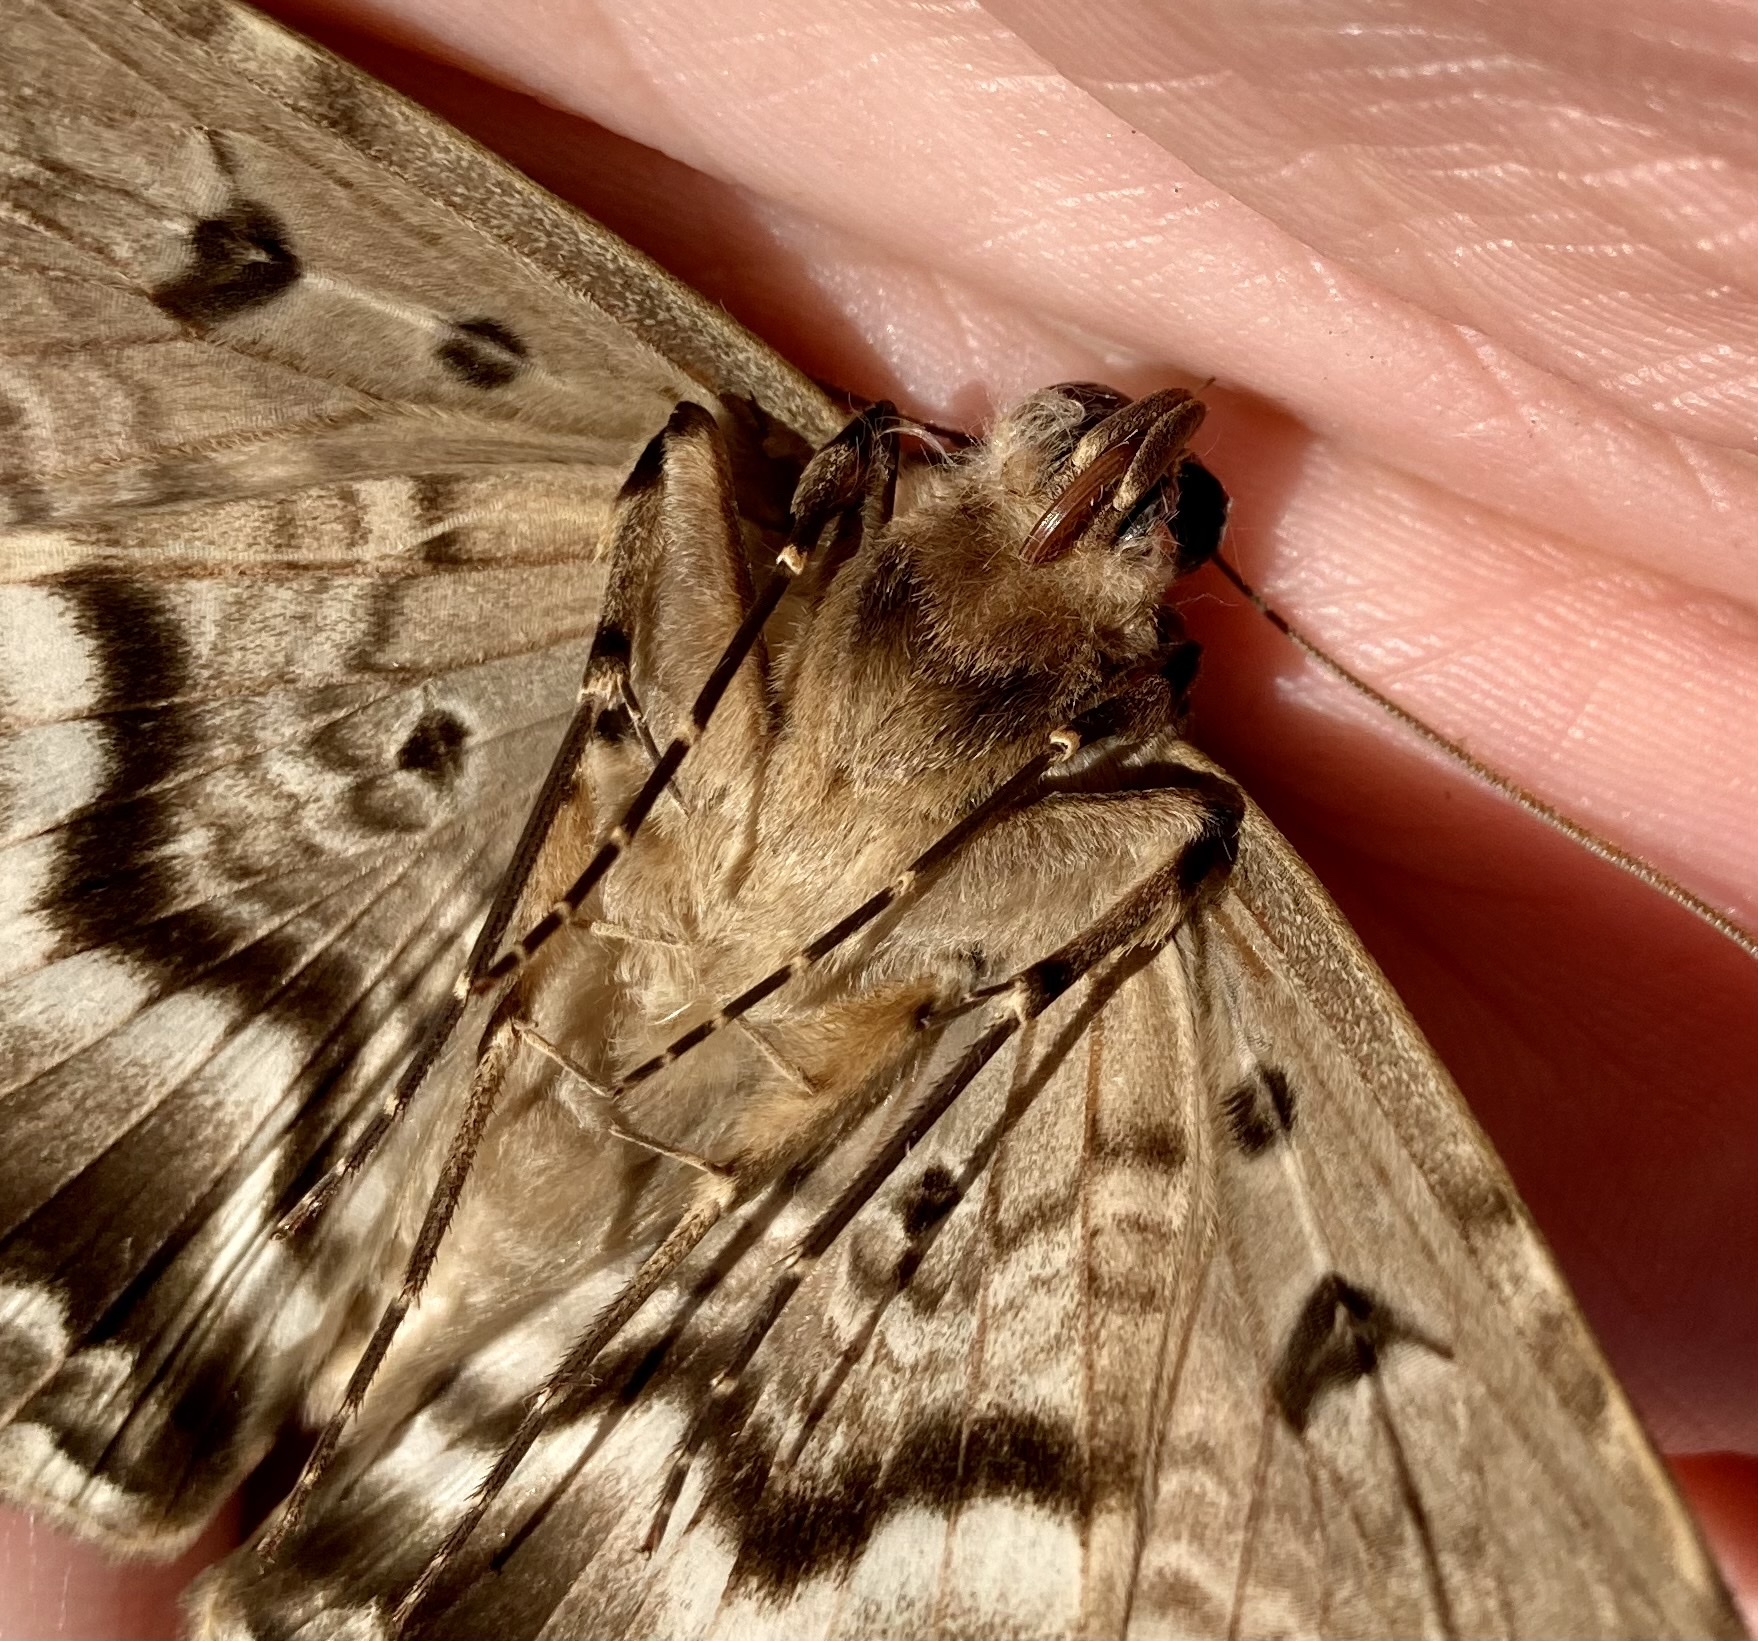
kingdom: Animalia
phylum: Arthropoda
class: Insecta
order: Lepidoptera
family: Erebidae
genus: Feigeria
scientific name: Feigeria buteo
